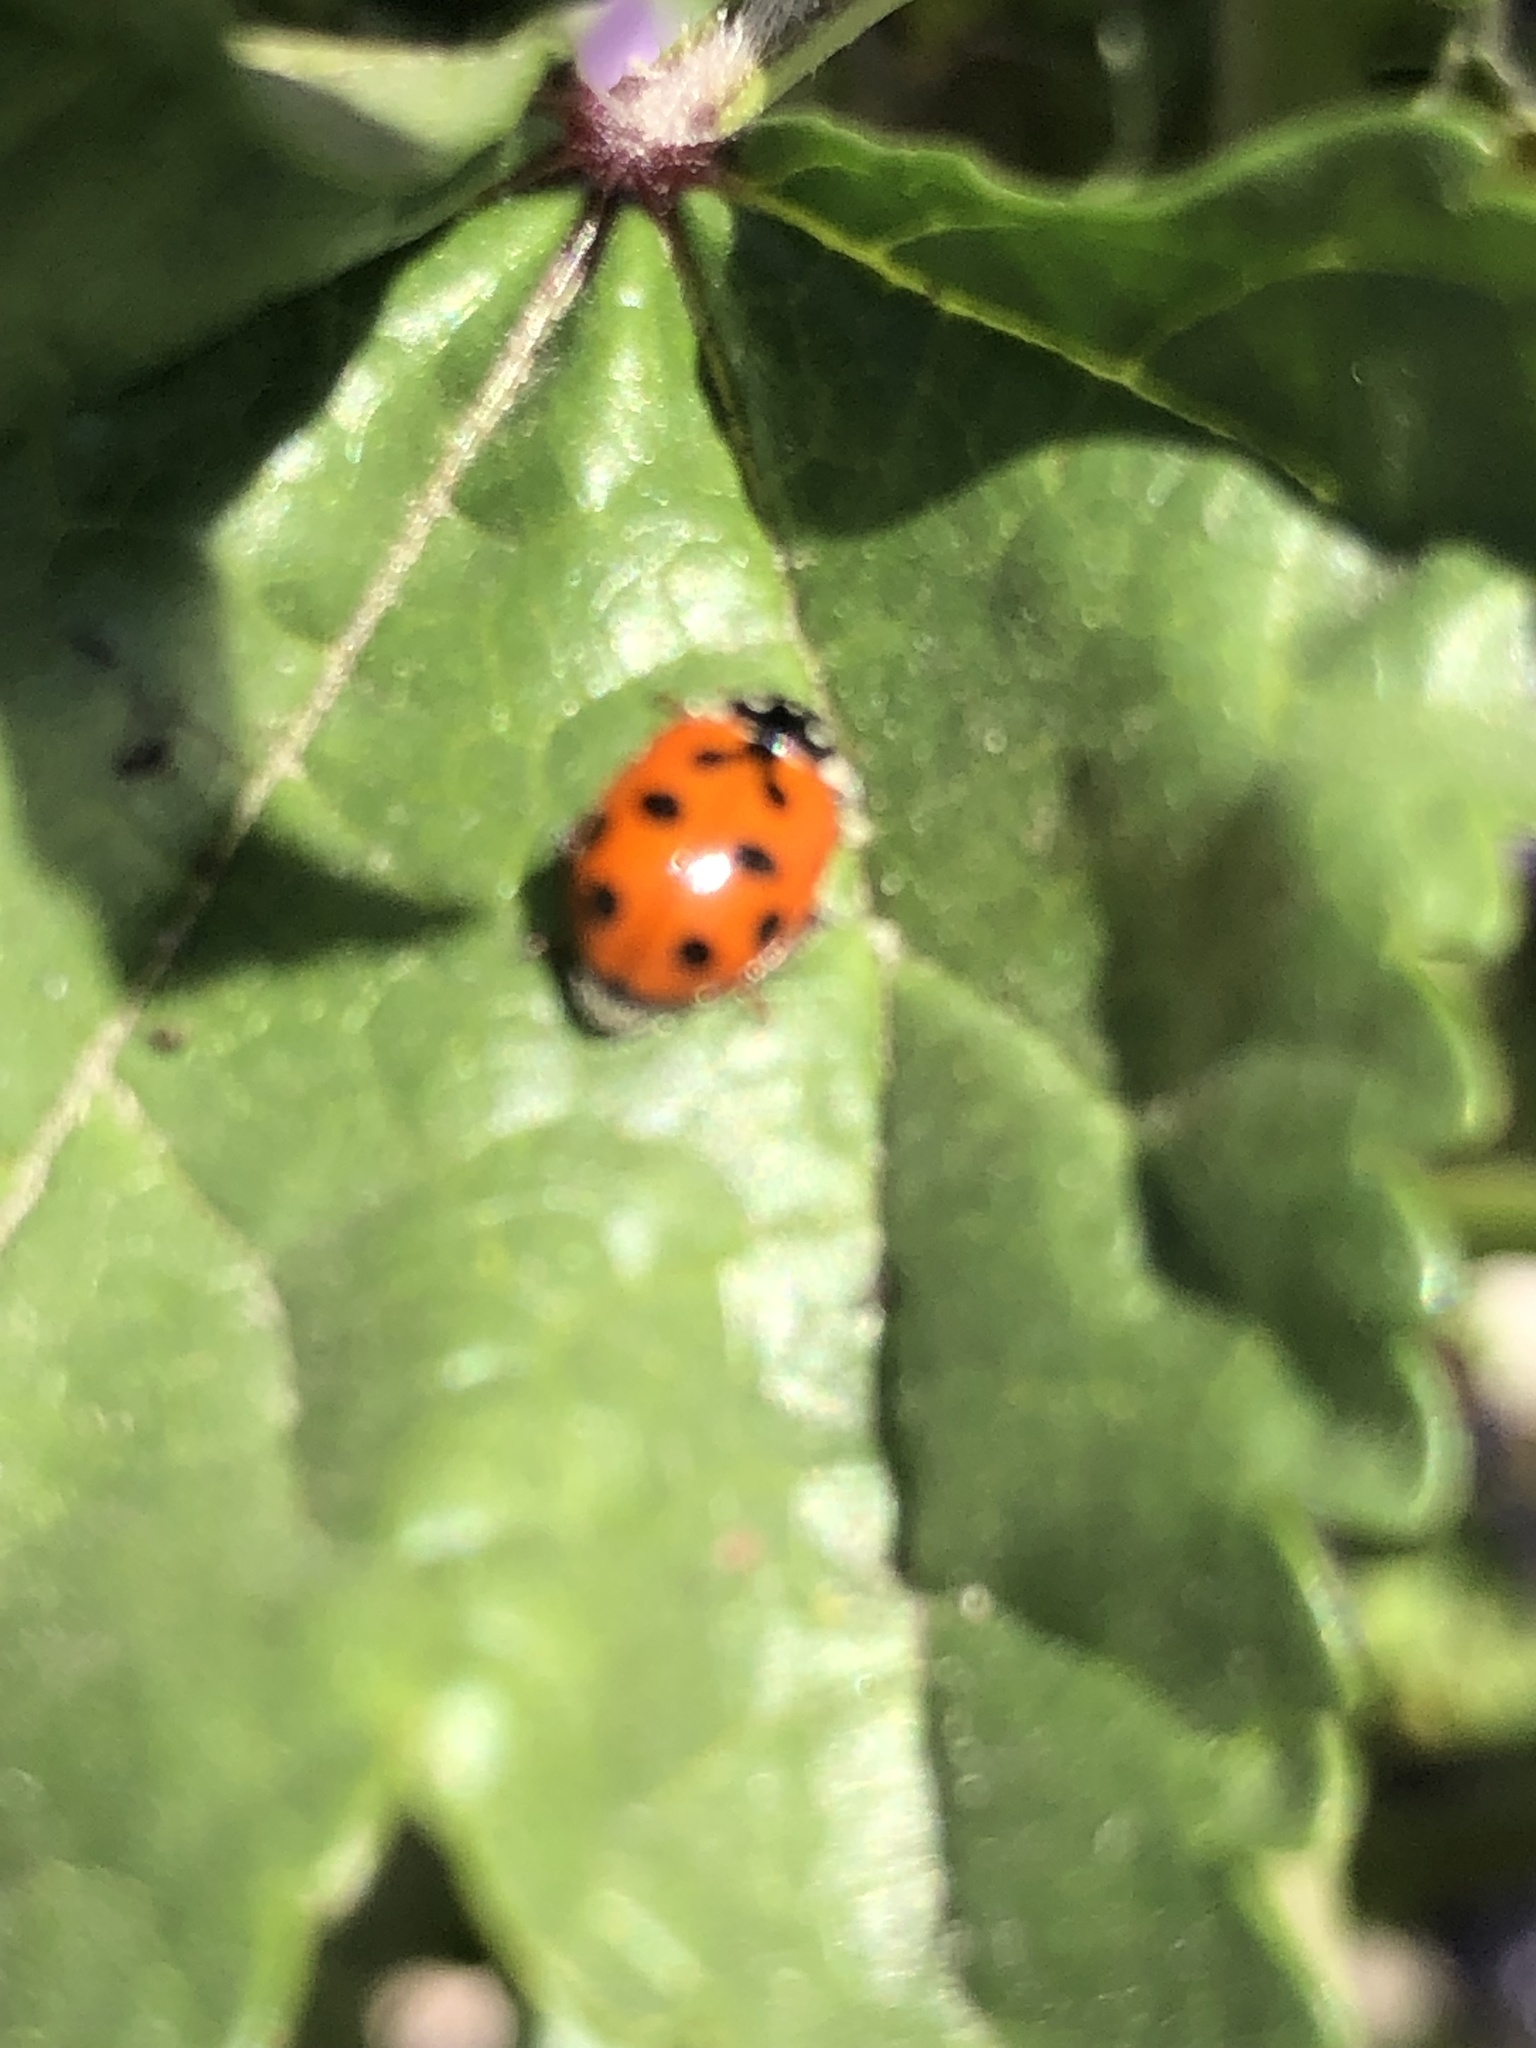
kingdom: Animalia
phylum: Arthropoda
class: Insecta
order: Coleoptera
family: Coccinellidae
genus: Hippodamia
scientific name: Hippodamia variegata
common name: Ladybird beetle
